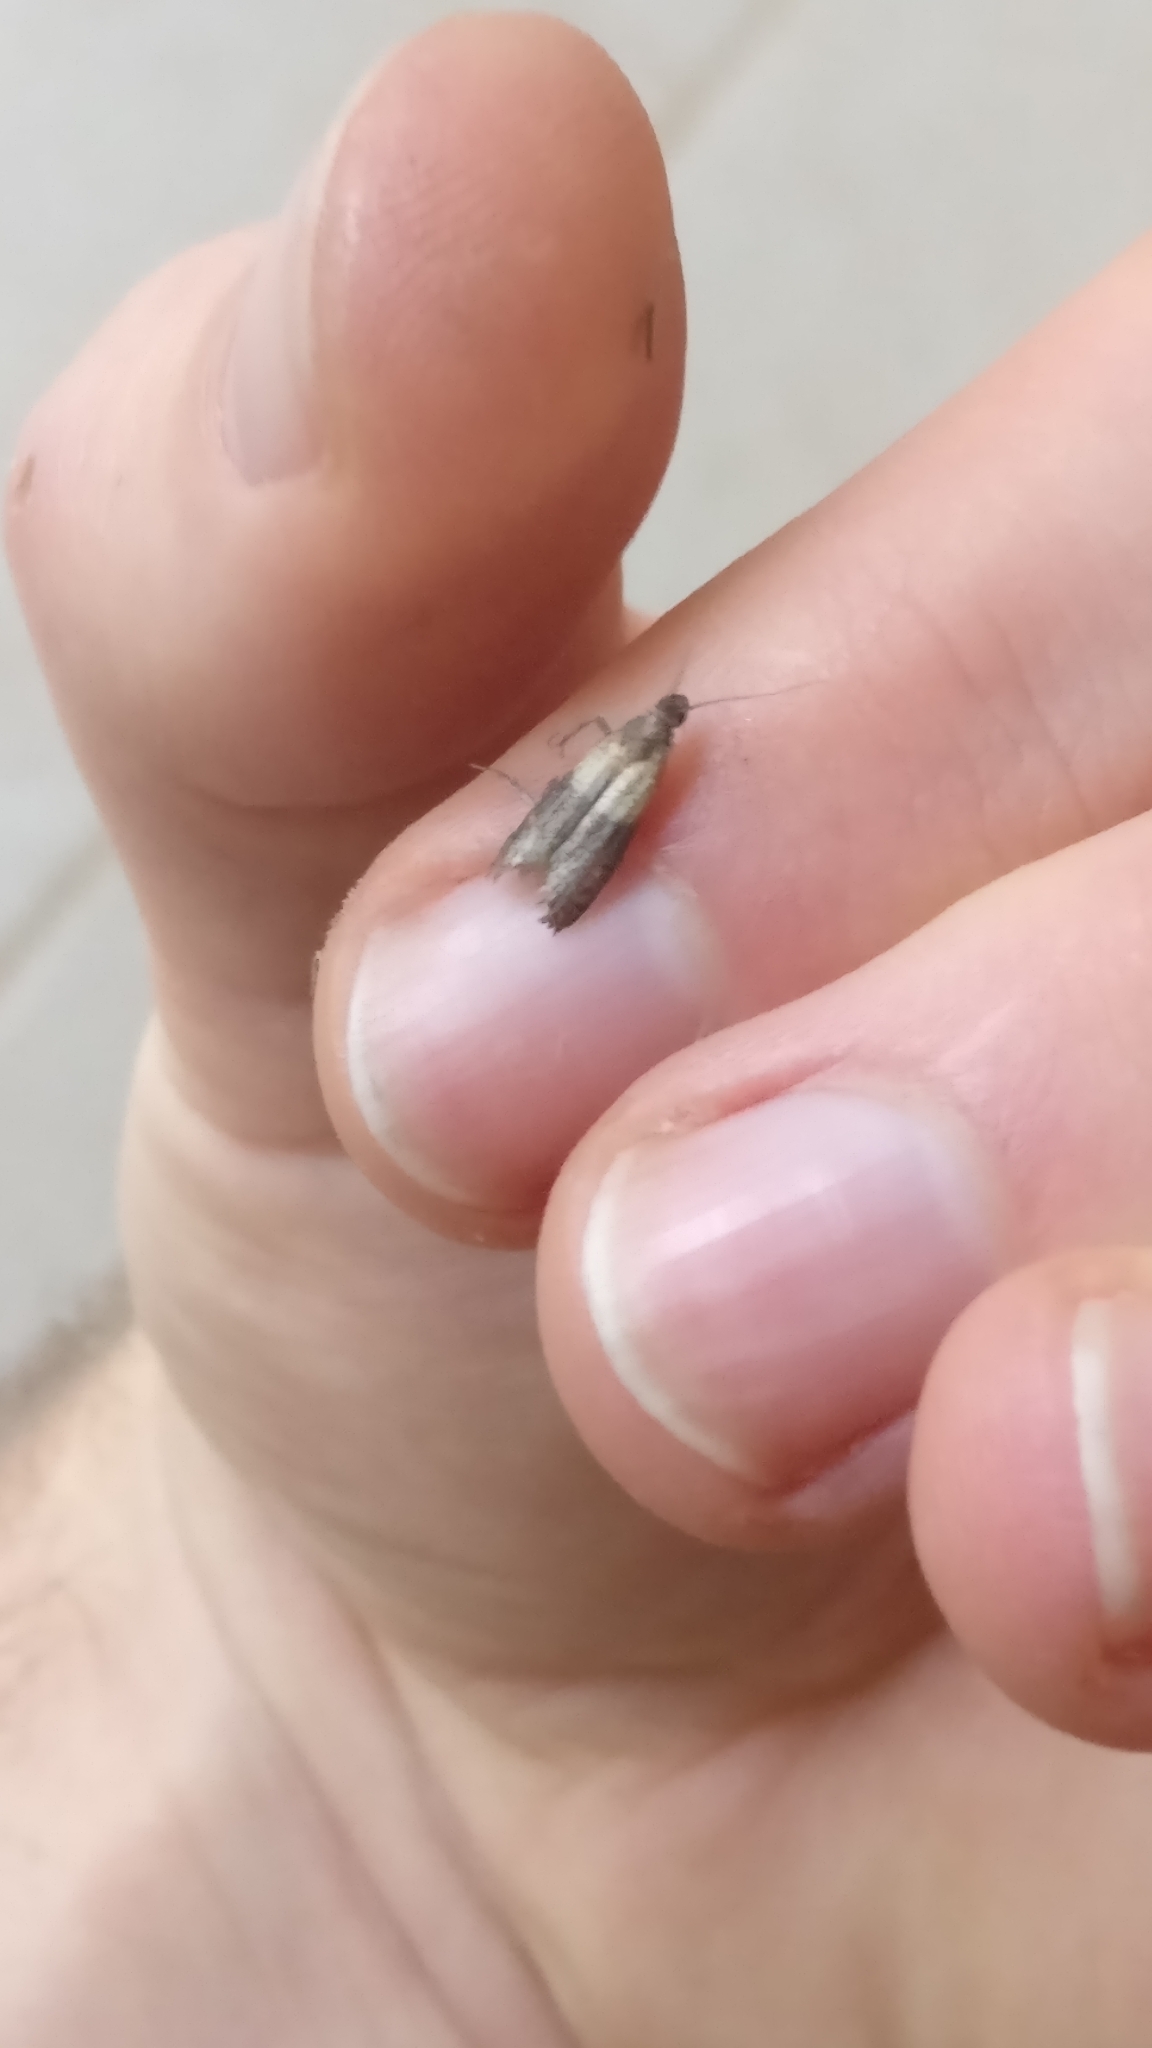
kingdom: Animalia
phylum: Arthropoda
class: Insecta
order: Lepidoptera
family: Pyralidae
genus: Plodia
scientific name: Plodia interpunctella
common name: Indian meal moth
